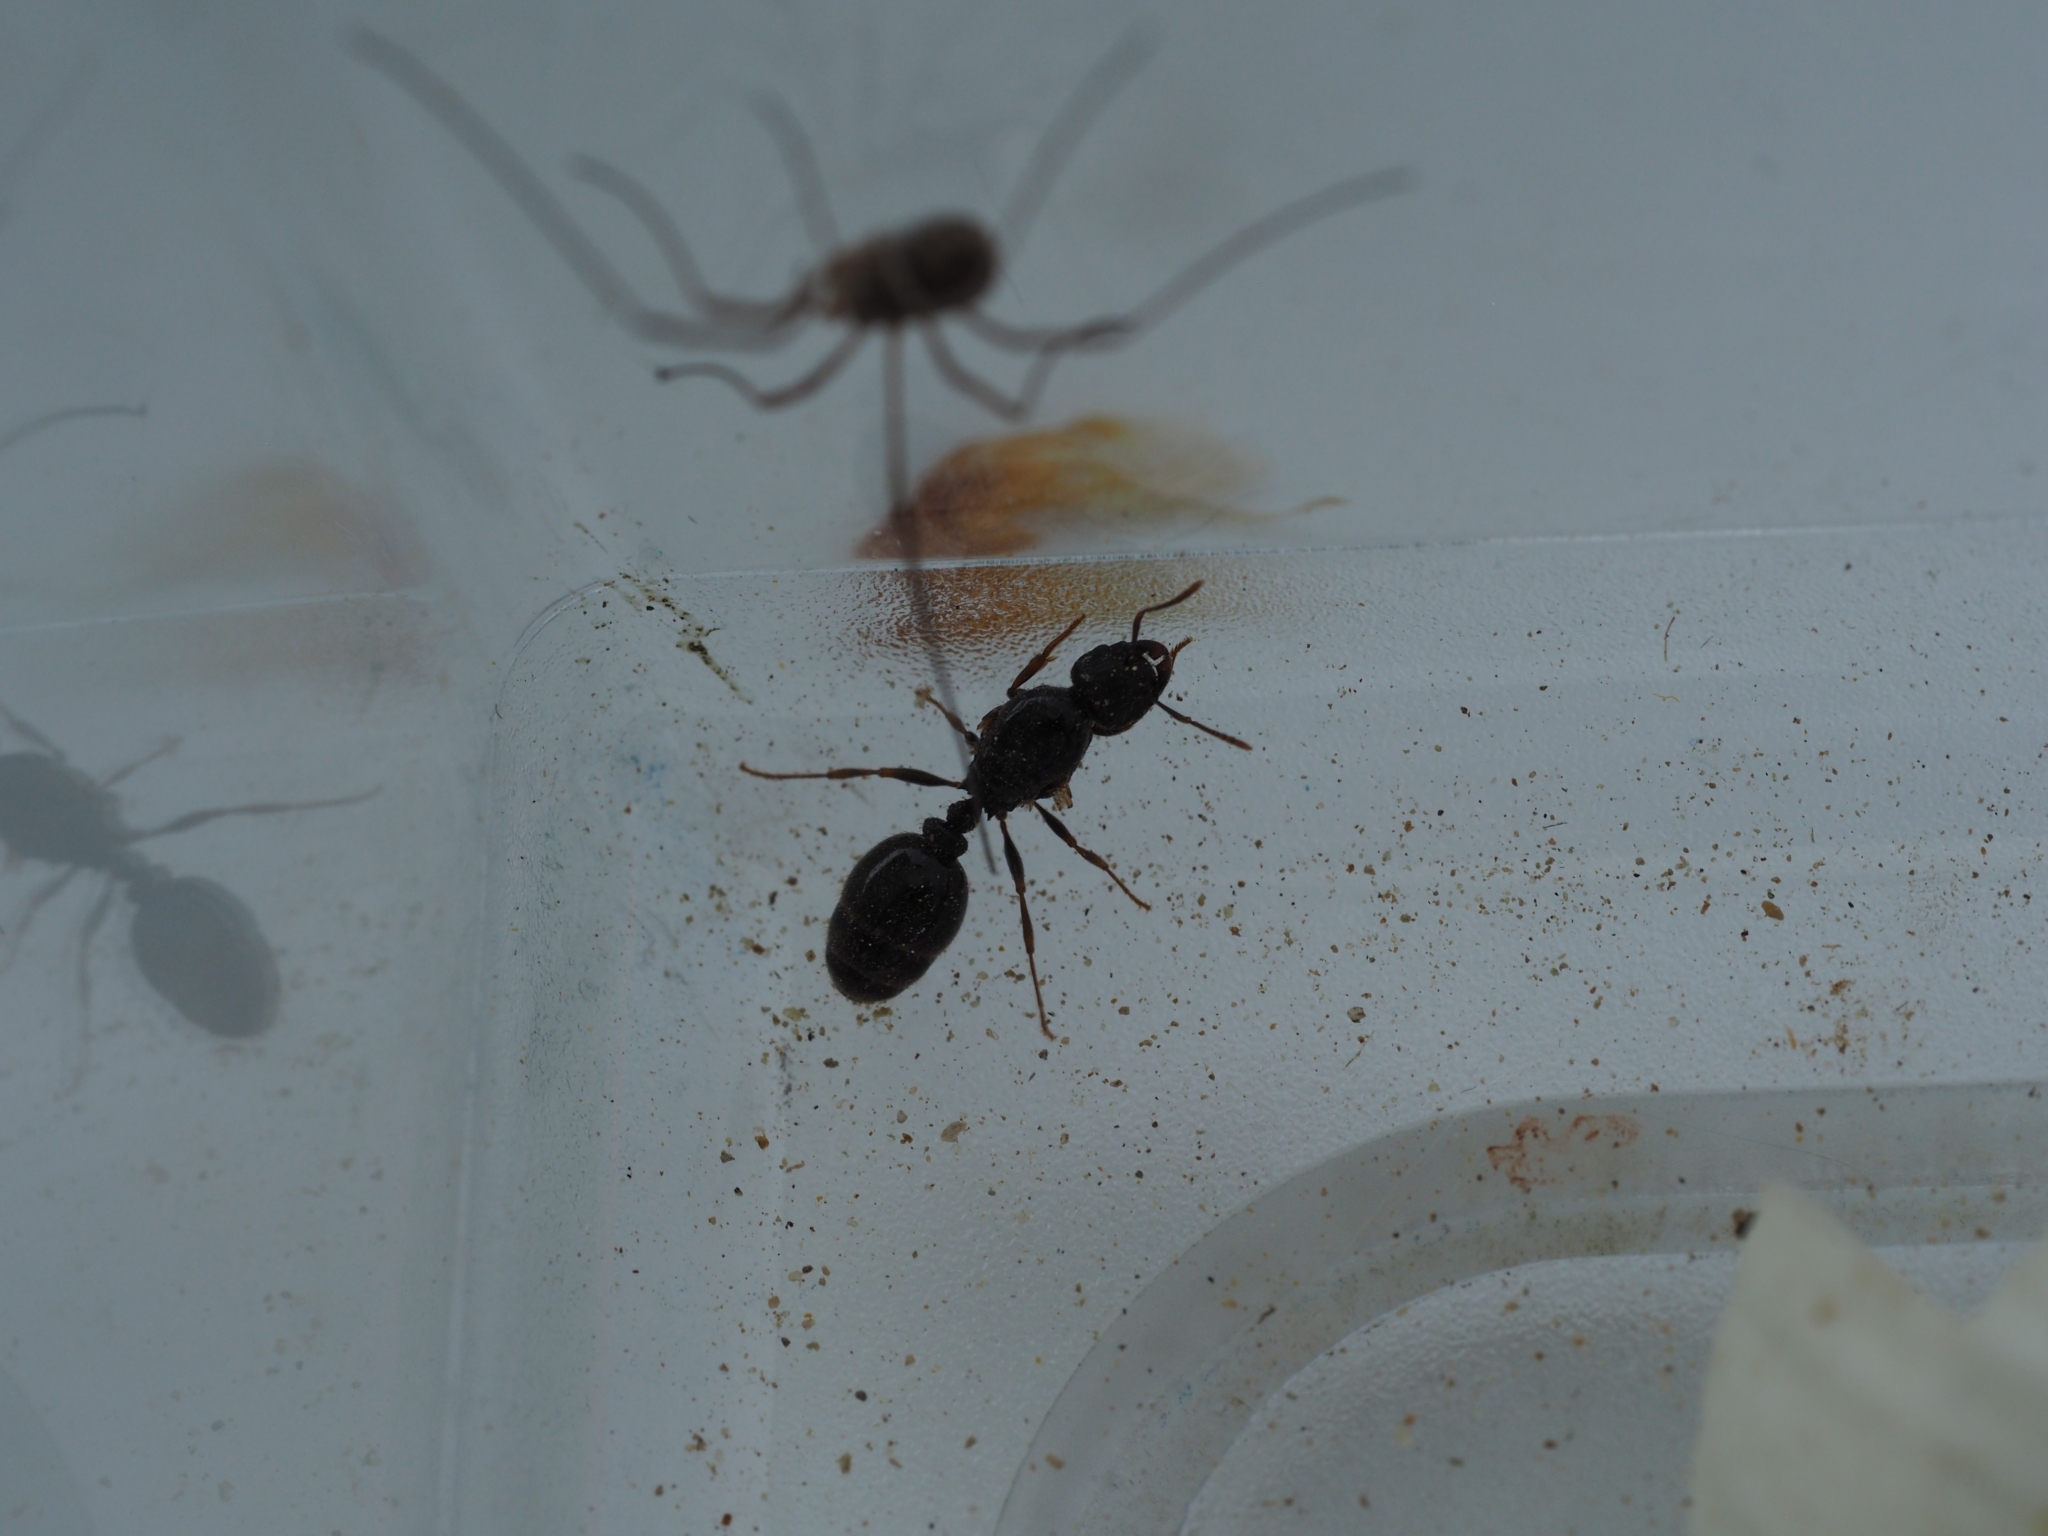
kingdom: Animalia
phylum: Arthropoda
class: Insecta
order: Hymenoptera
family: Formicidae
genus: Tetramorium
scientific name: Tetramorium caespitum
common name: Pavement ant
